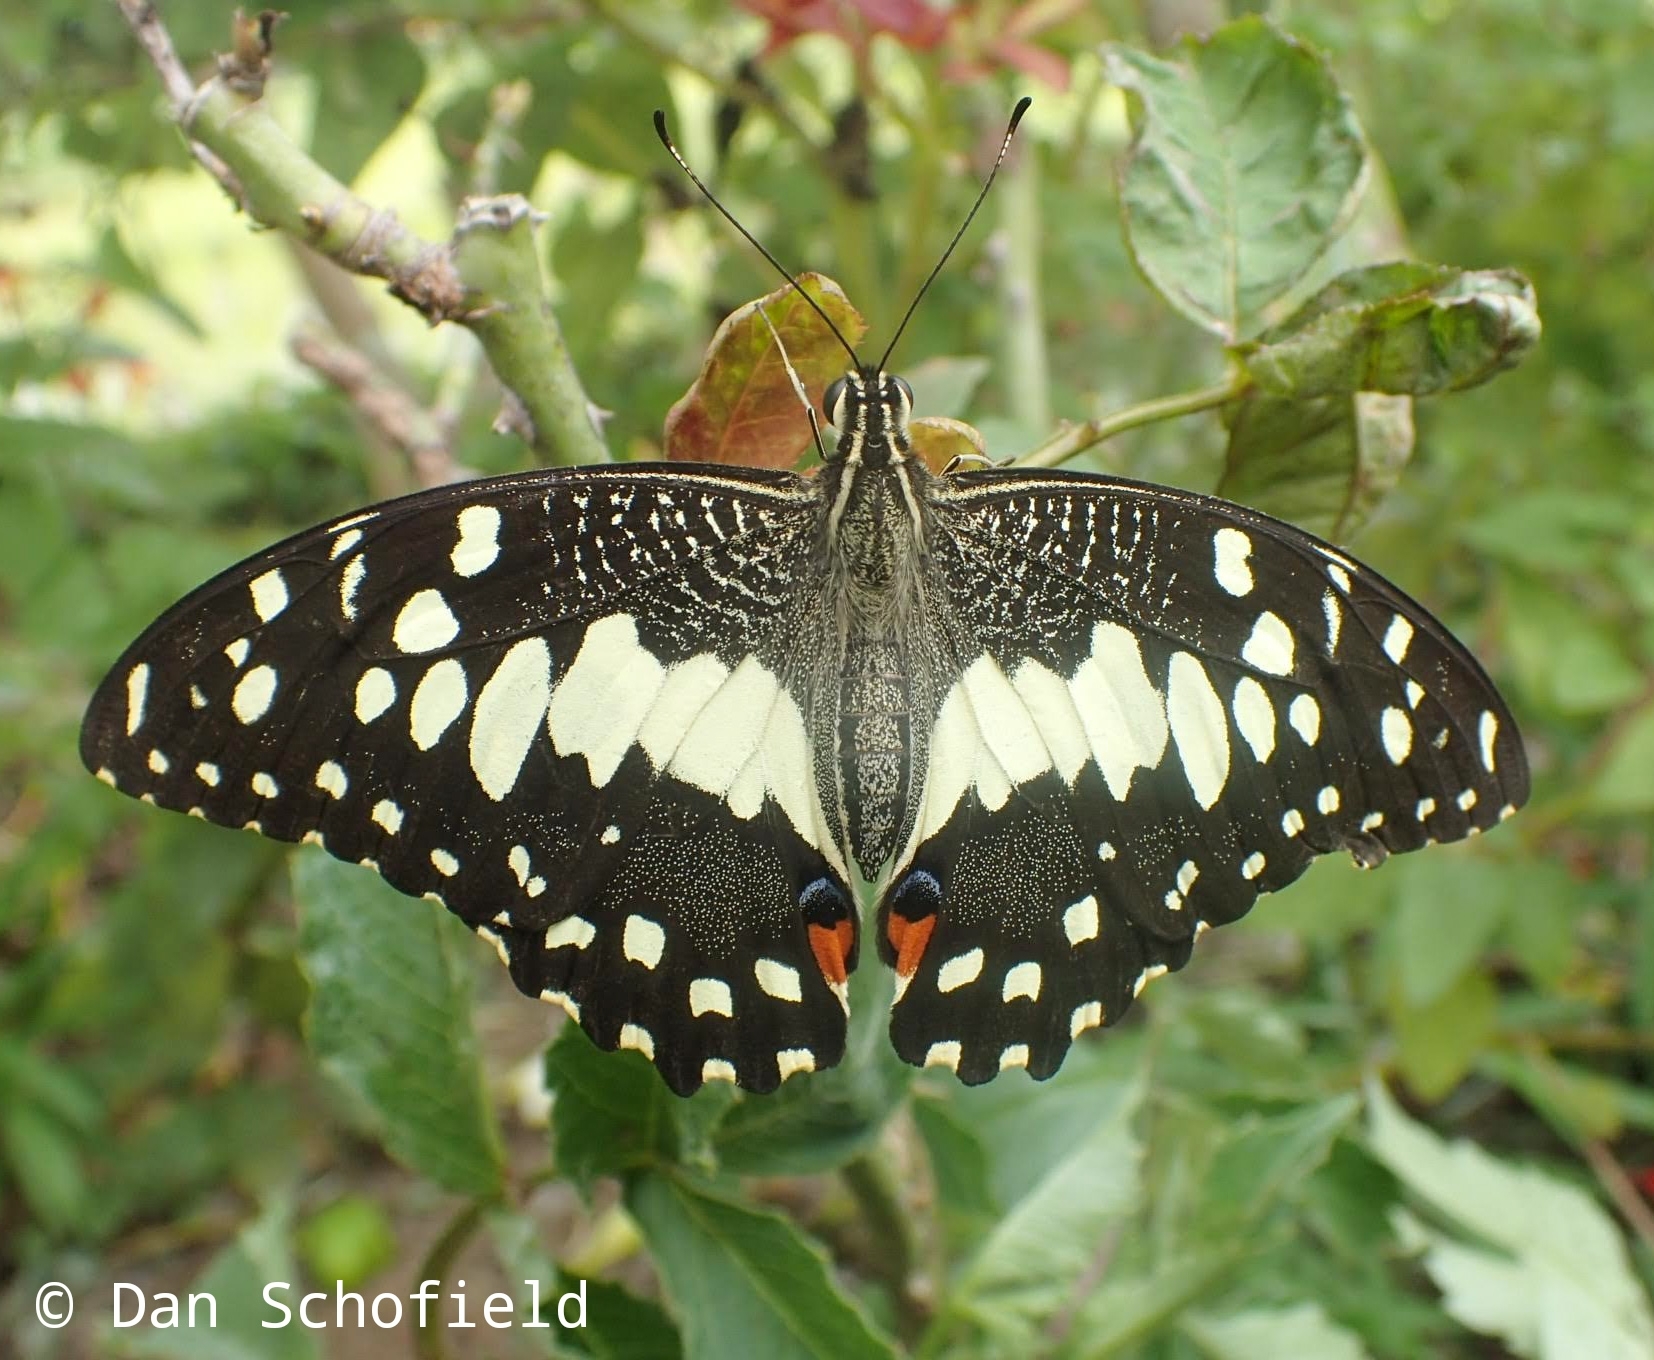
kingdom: Animalia
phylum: Arthropoda
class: Insecta
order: Lepidoptera
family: Papilionidae
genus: Papilio
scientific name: Papilio demoleus
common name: Lime butterfly
